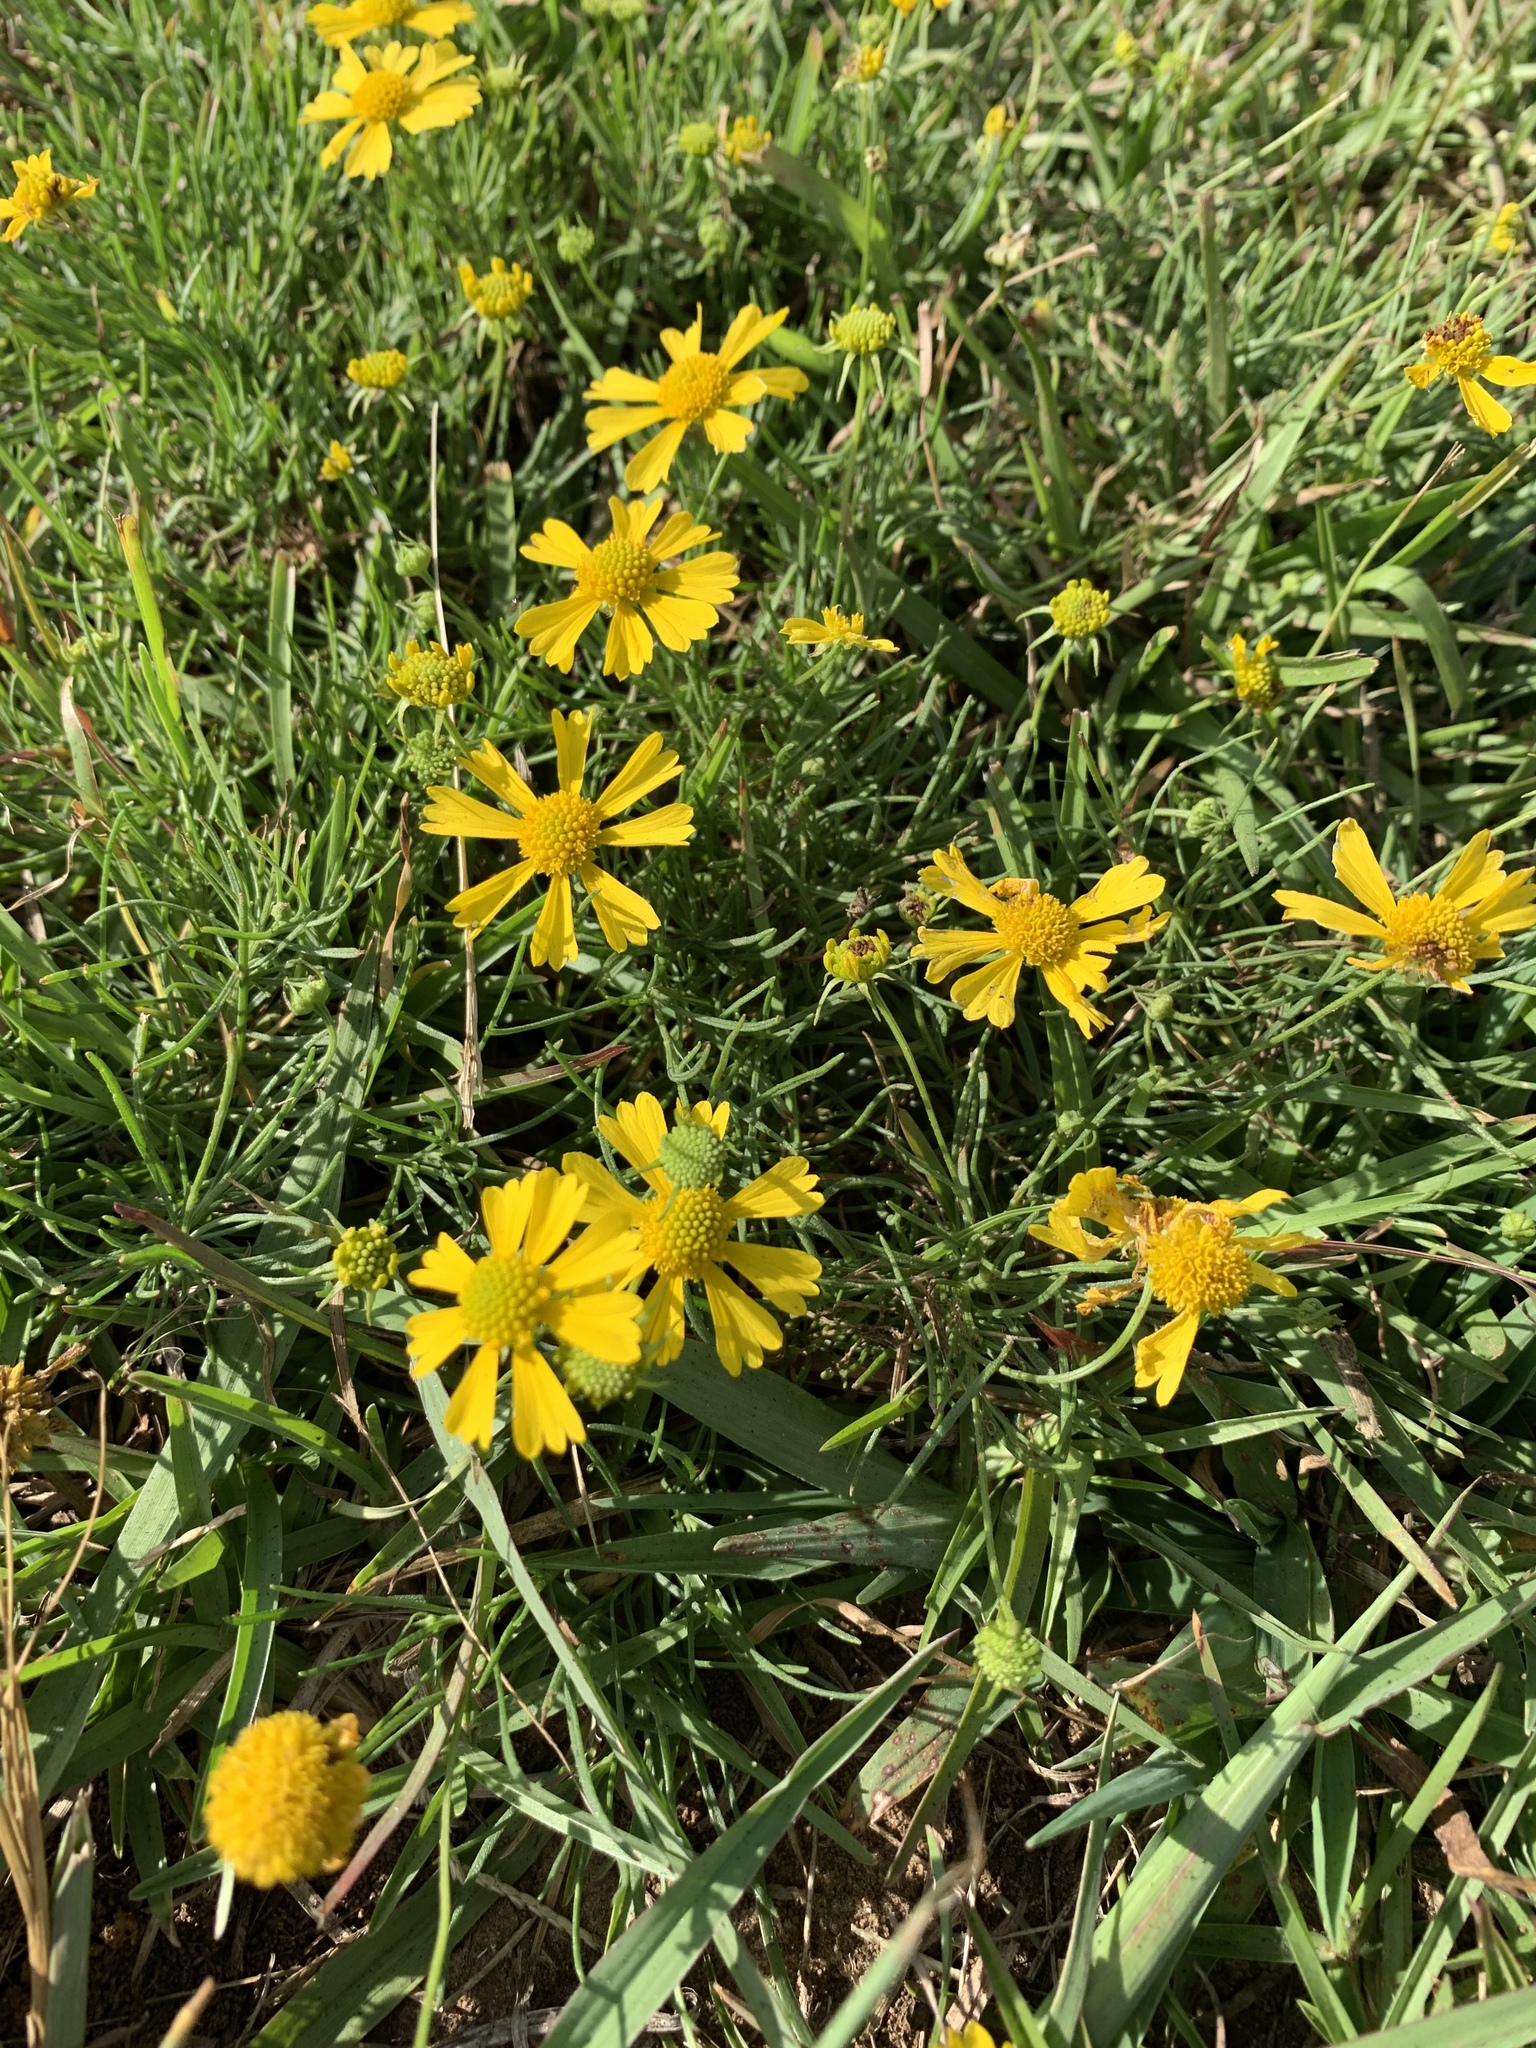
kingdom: Plantae
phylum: Tracheophyta
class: Magnoliopsida
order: Asterales
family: Asteraceae
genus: Helenium
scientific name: Helenium amarum
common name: Bitter sneezeweed
